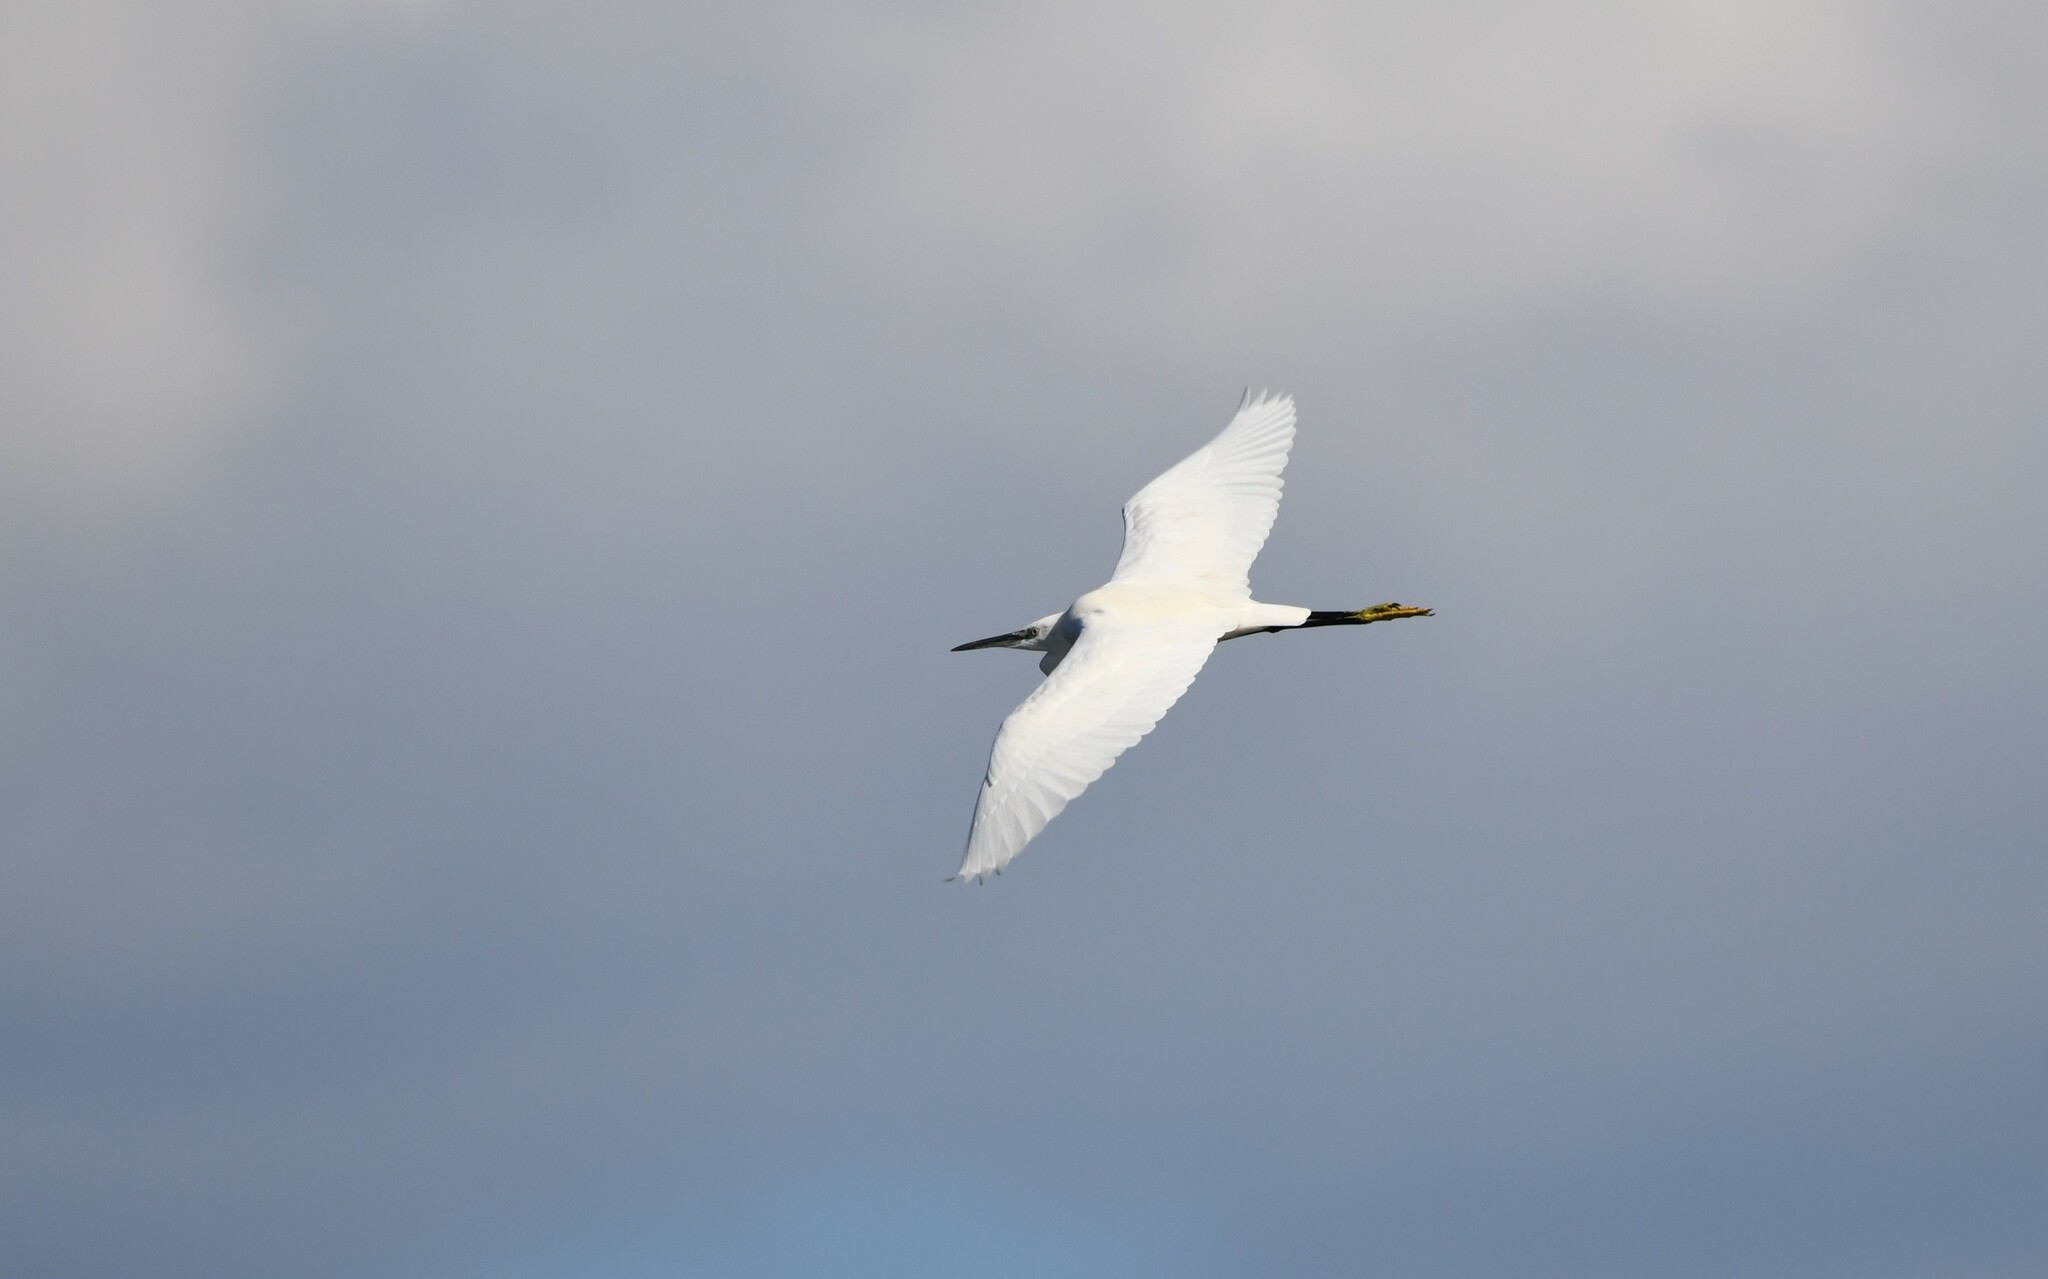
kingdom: Animalia
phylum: Chordata
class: Aves
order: Pelecaniformes
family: Ardeidae
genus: Egretta
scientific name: Egretta garzetta
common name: Little egret
